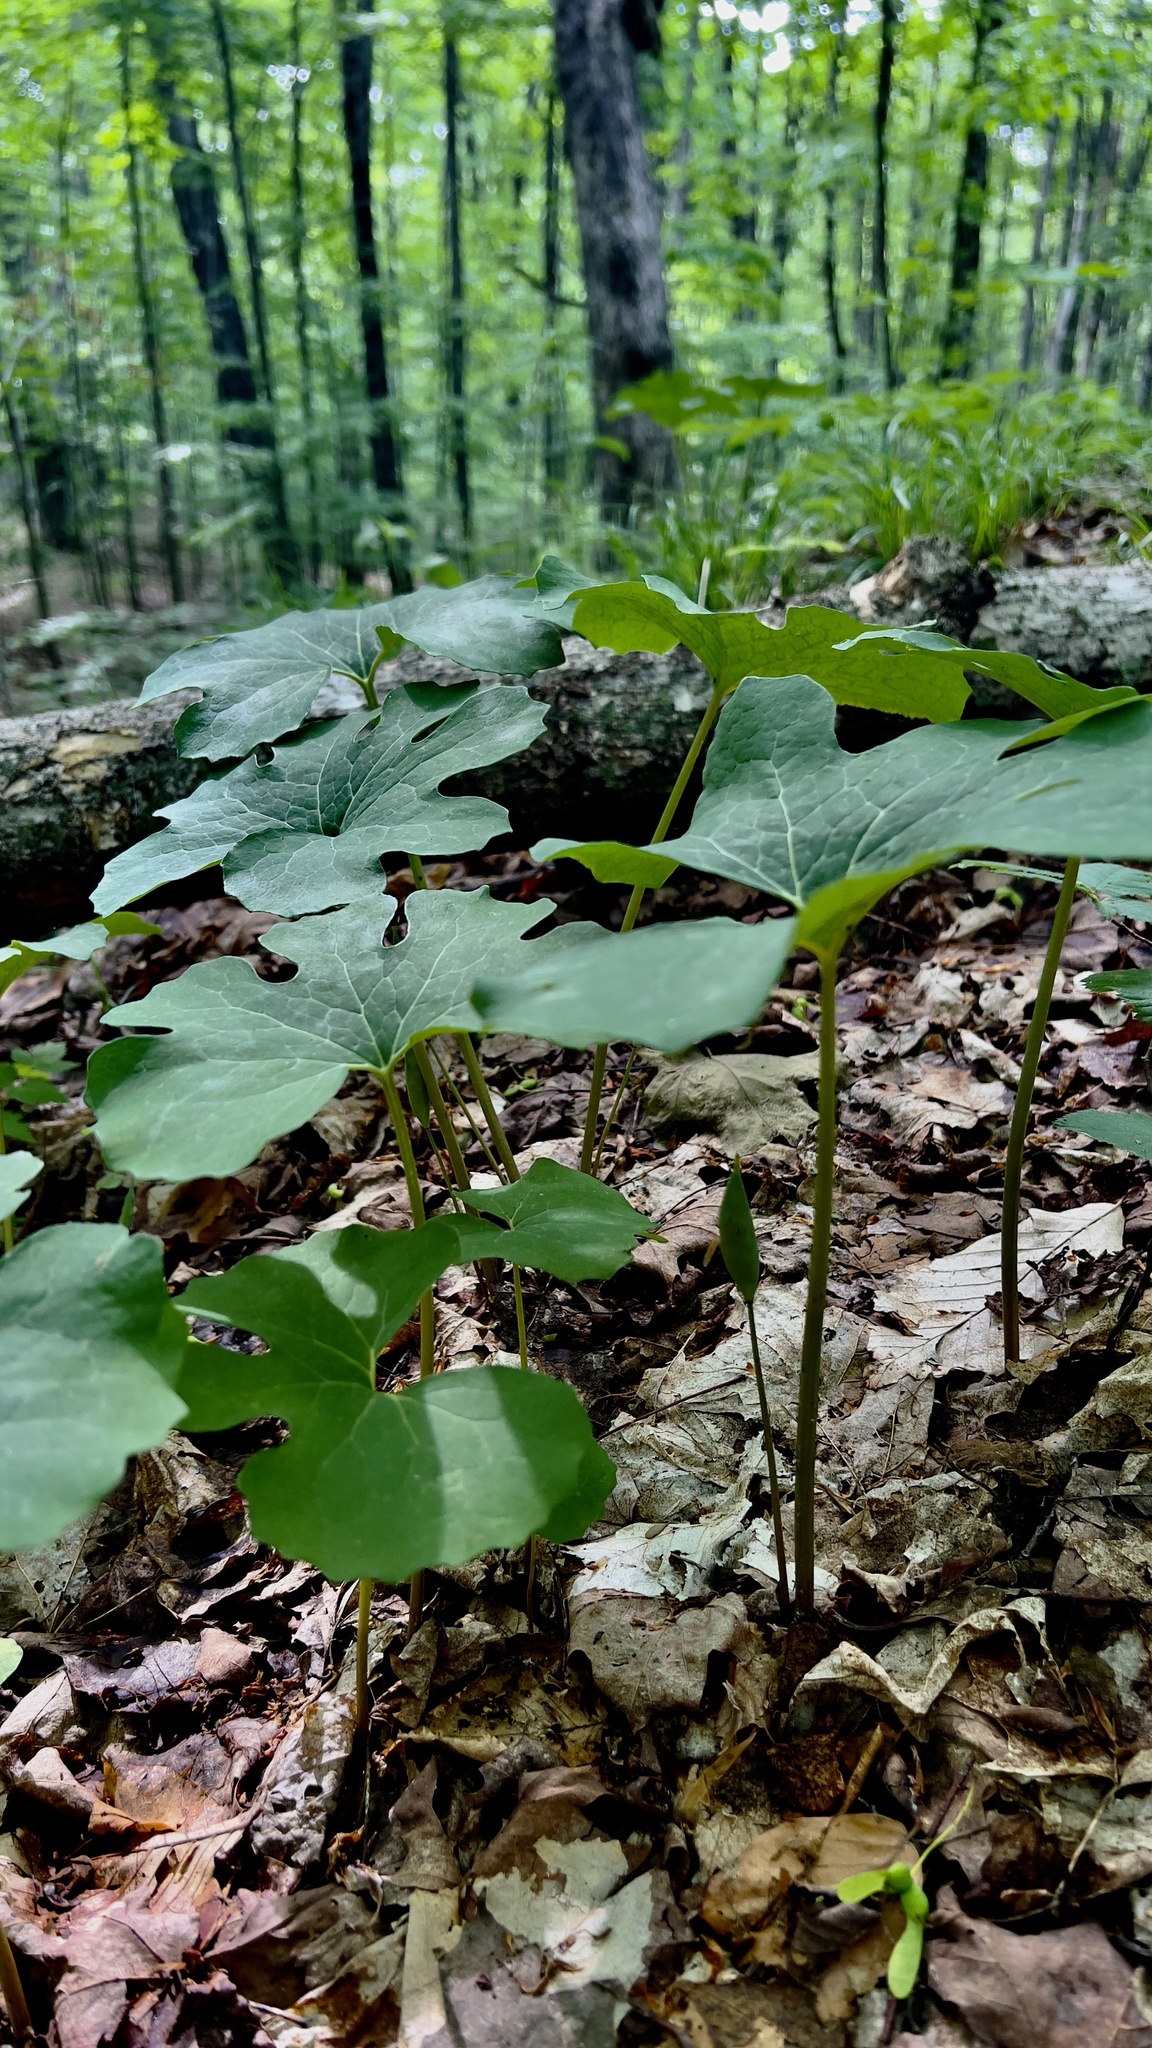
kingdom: Plantae
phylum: Tracheophyta
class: Magnoliopsida
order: Ranunculales
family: Papaveraceae
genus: Sanguinaria
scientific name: Sanguinaria canadensis
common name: Bloodroot
